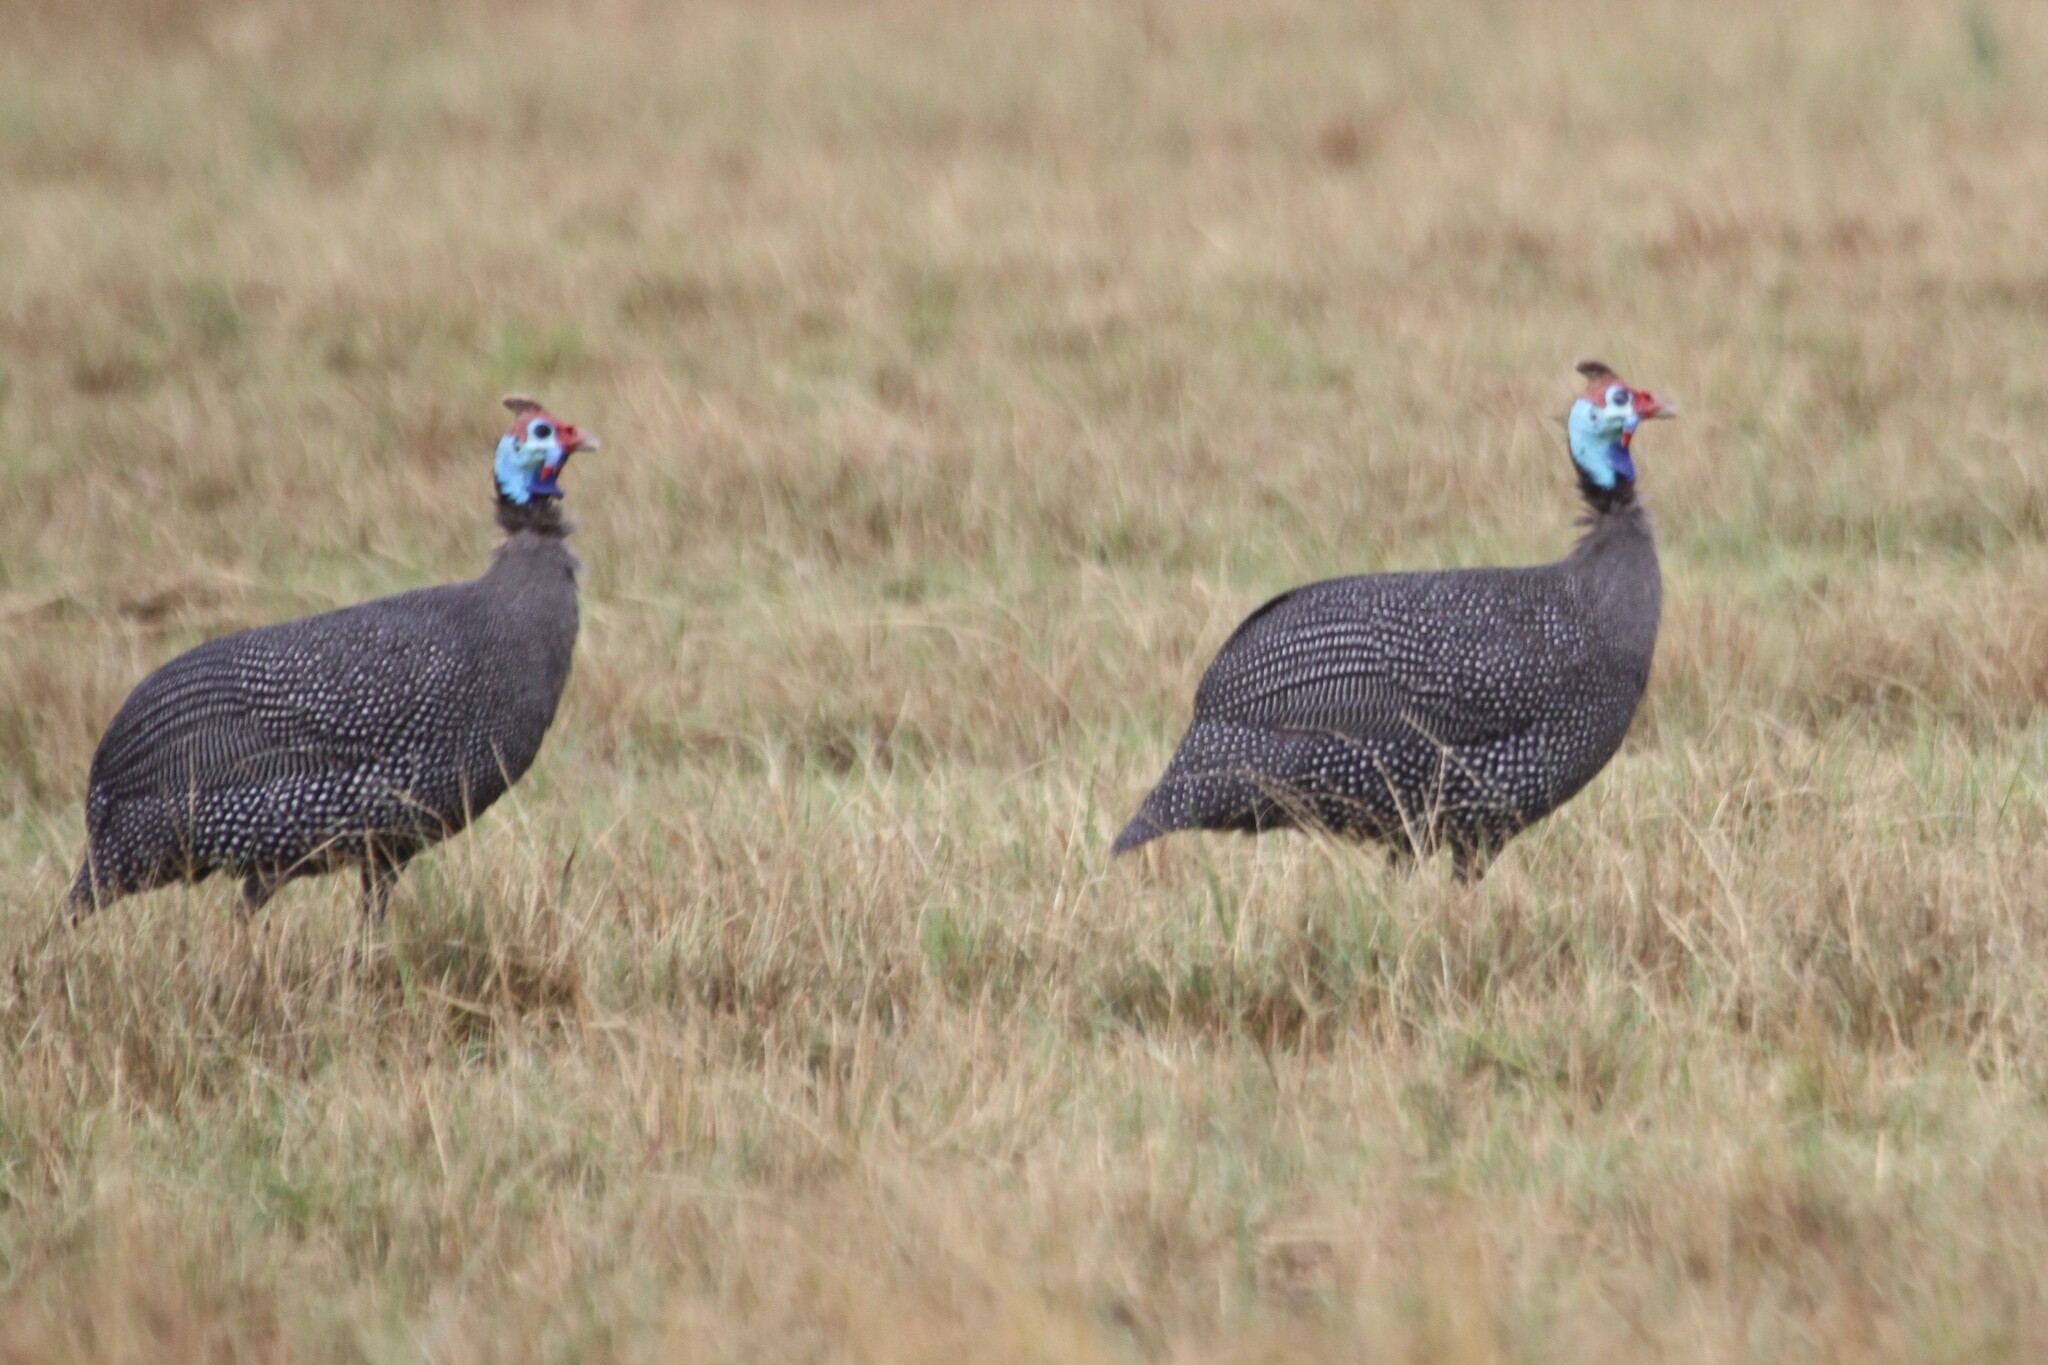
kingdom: Animalia
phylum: Chordata
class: Aves
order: Galliformes
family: Numididae
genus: Numida
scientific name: Numida meleagris
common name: Helmeted guineafowl
